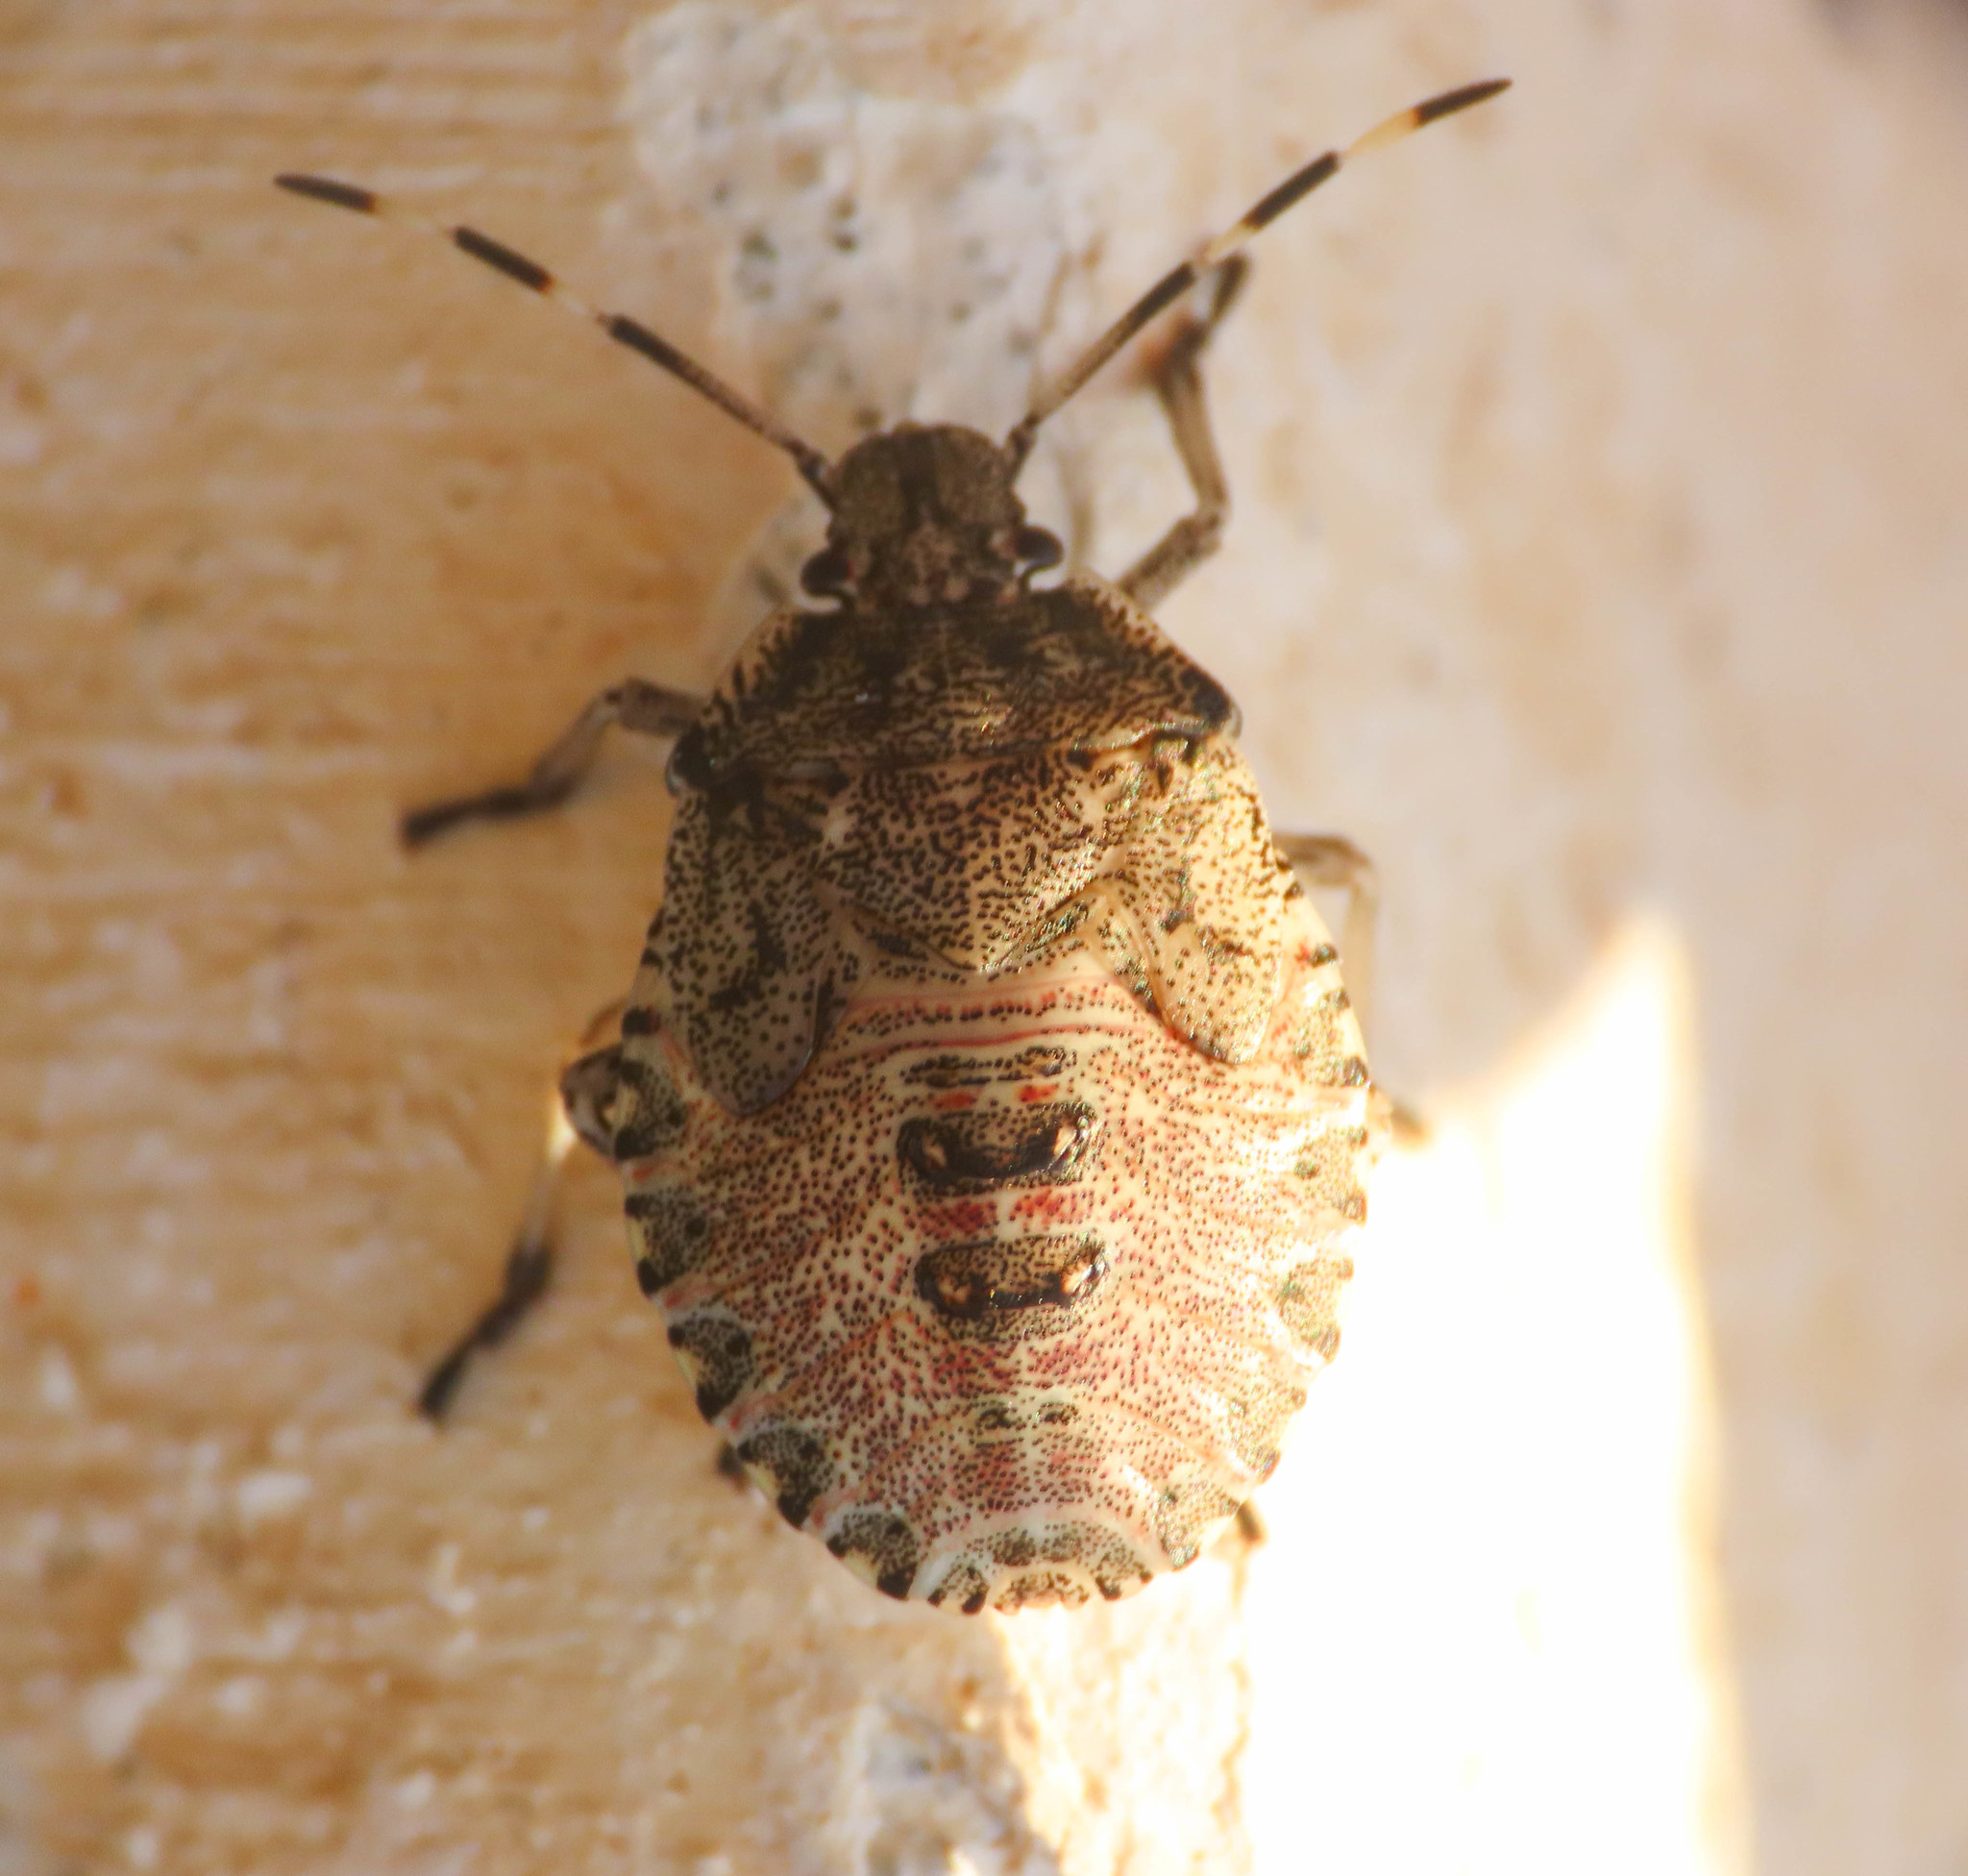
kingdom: Animalia
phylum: Arthropoda
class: Insecta
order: Hemiptera
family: Pentatomidae
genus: Rhaphigaster
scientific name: Rhaphigaster nebulosa
